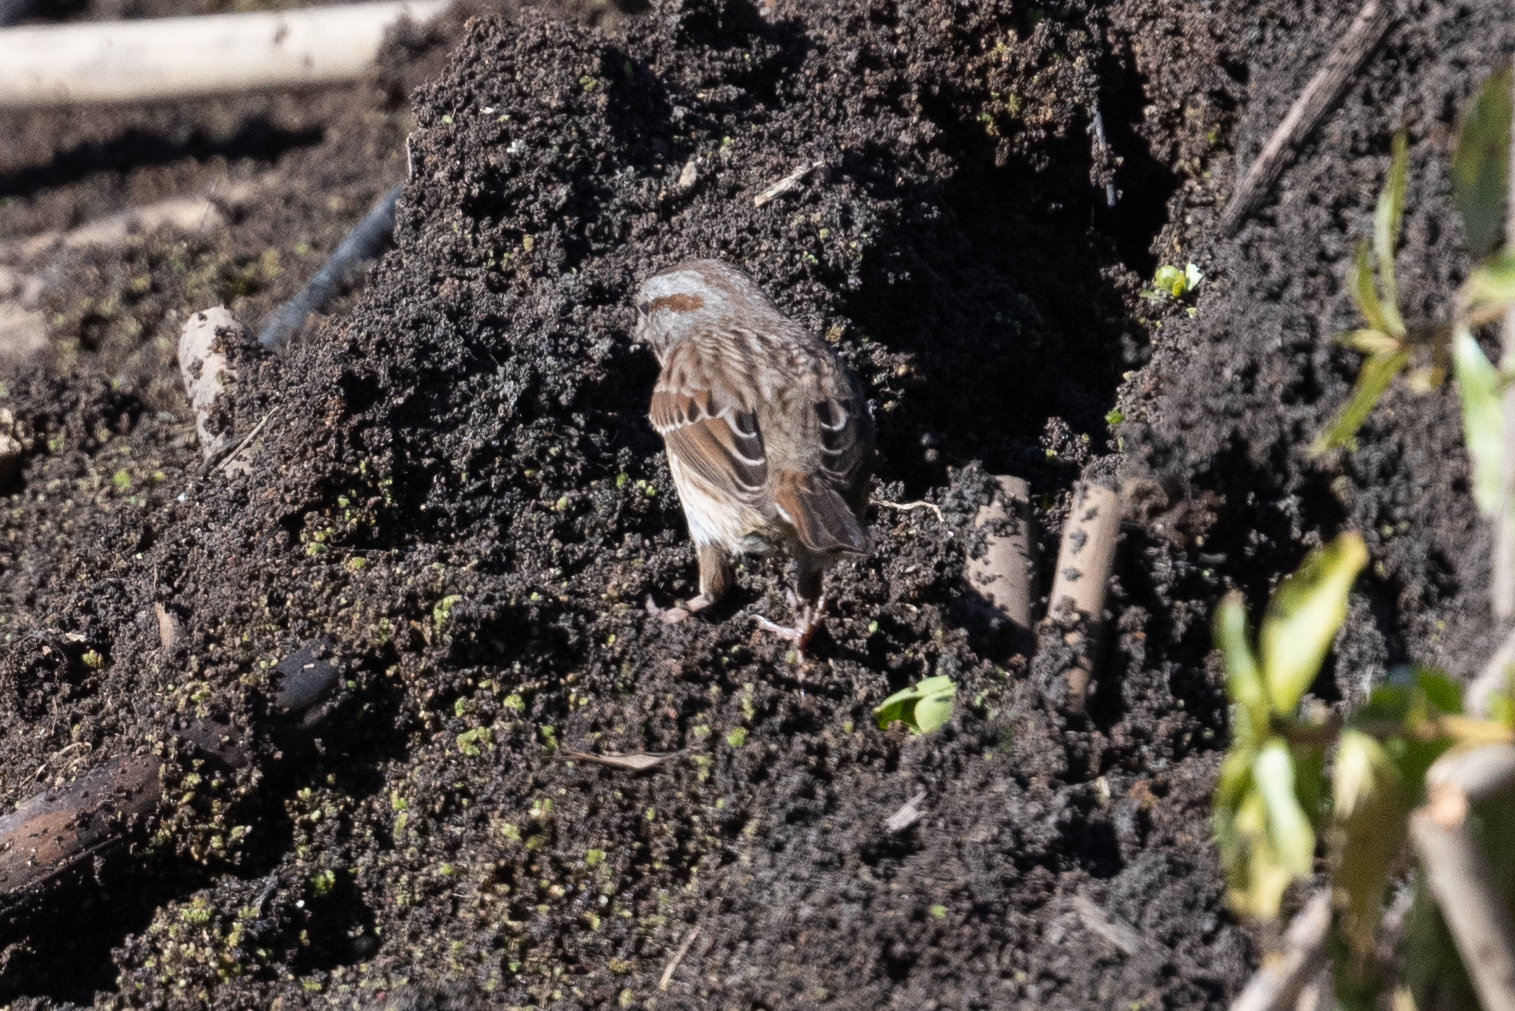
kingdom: Animalia
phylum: Chordata
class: Aves
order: Passeriformes
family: Passerellidae
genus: Melospiza
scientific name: Melospiza melodia
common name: Song sparrow
